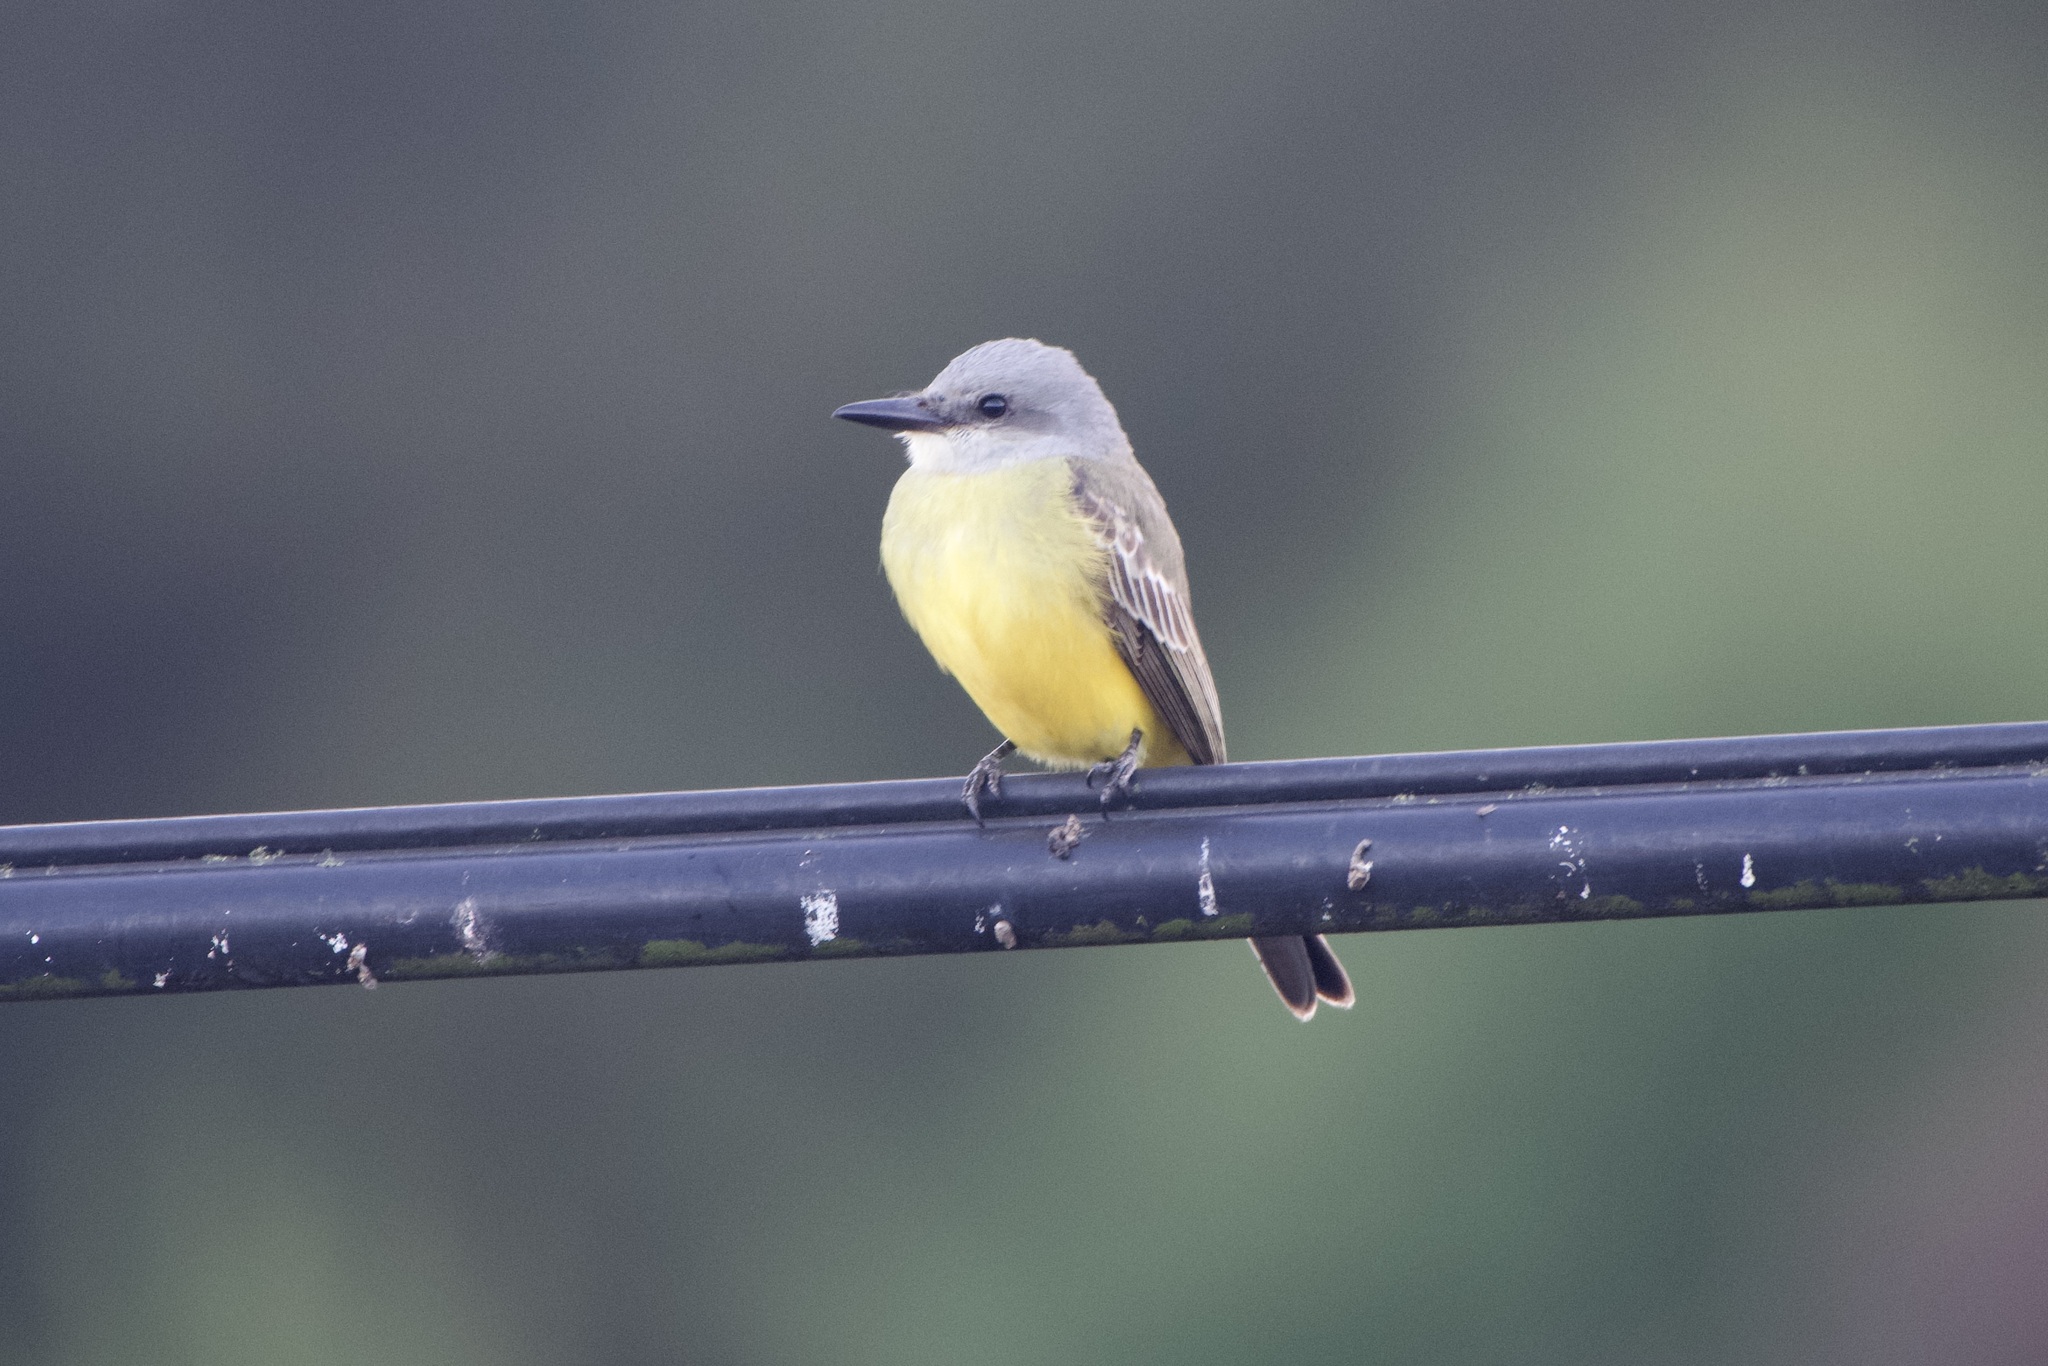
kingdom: Animalia
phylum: Chordata
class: Aves
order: Passeriformes
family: Tyrannidae
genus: Tyrannus
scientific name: Tyrannus melancholicus
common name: Tropical kingbird
